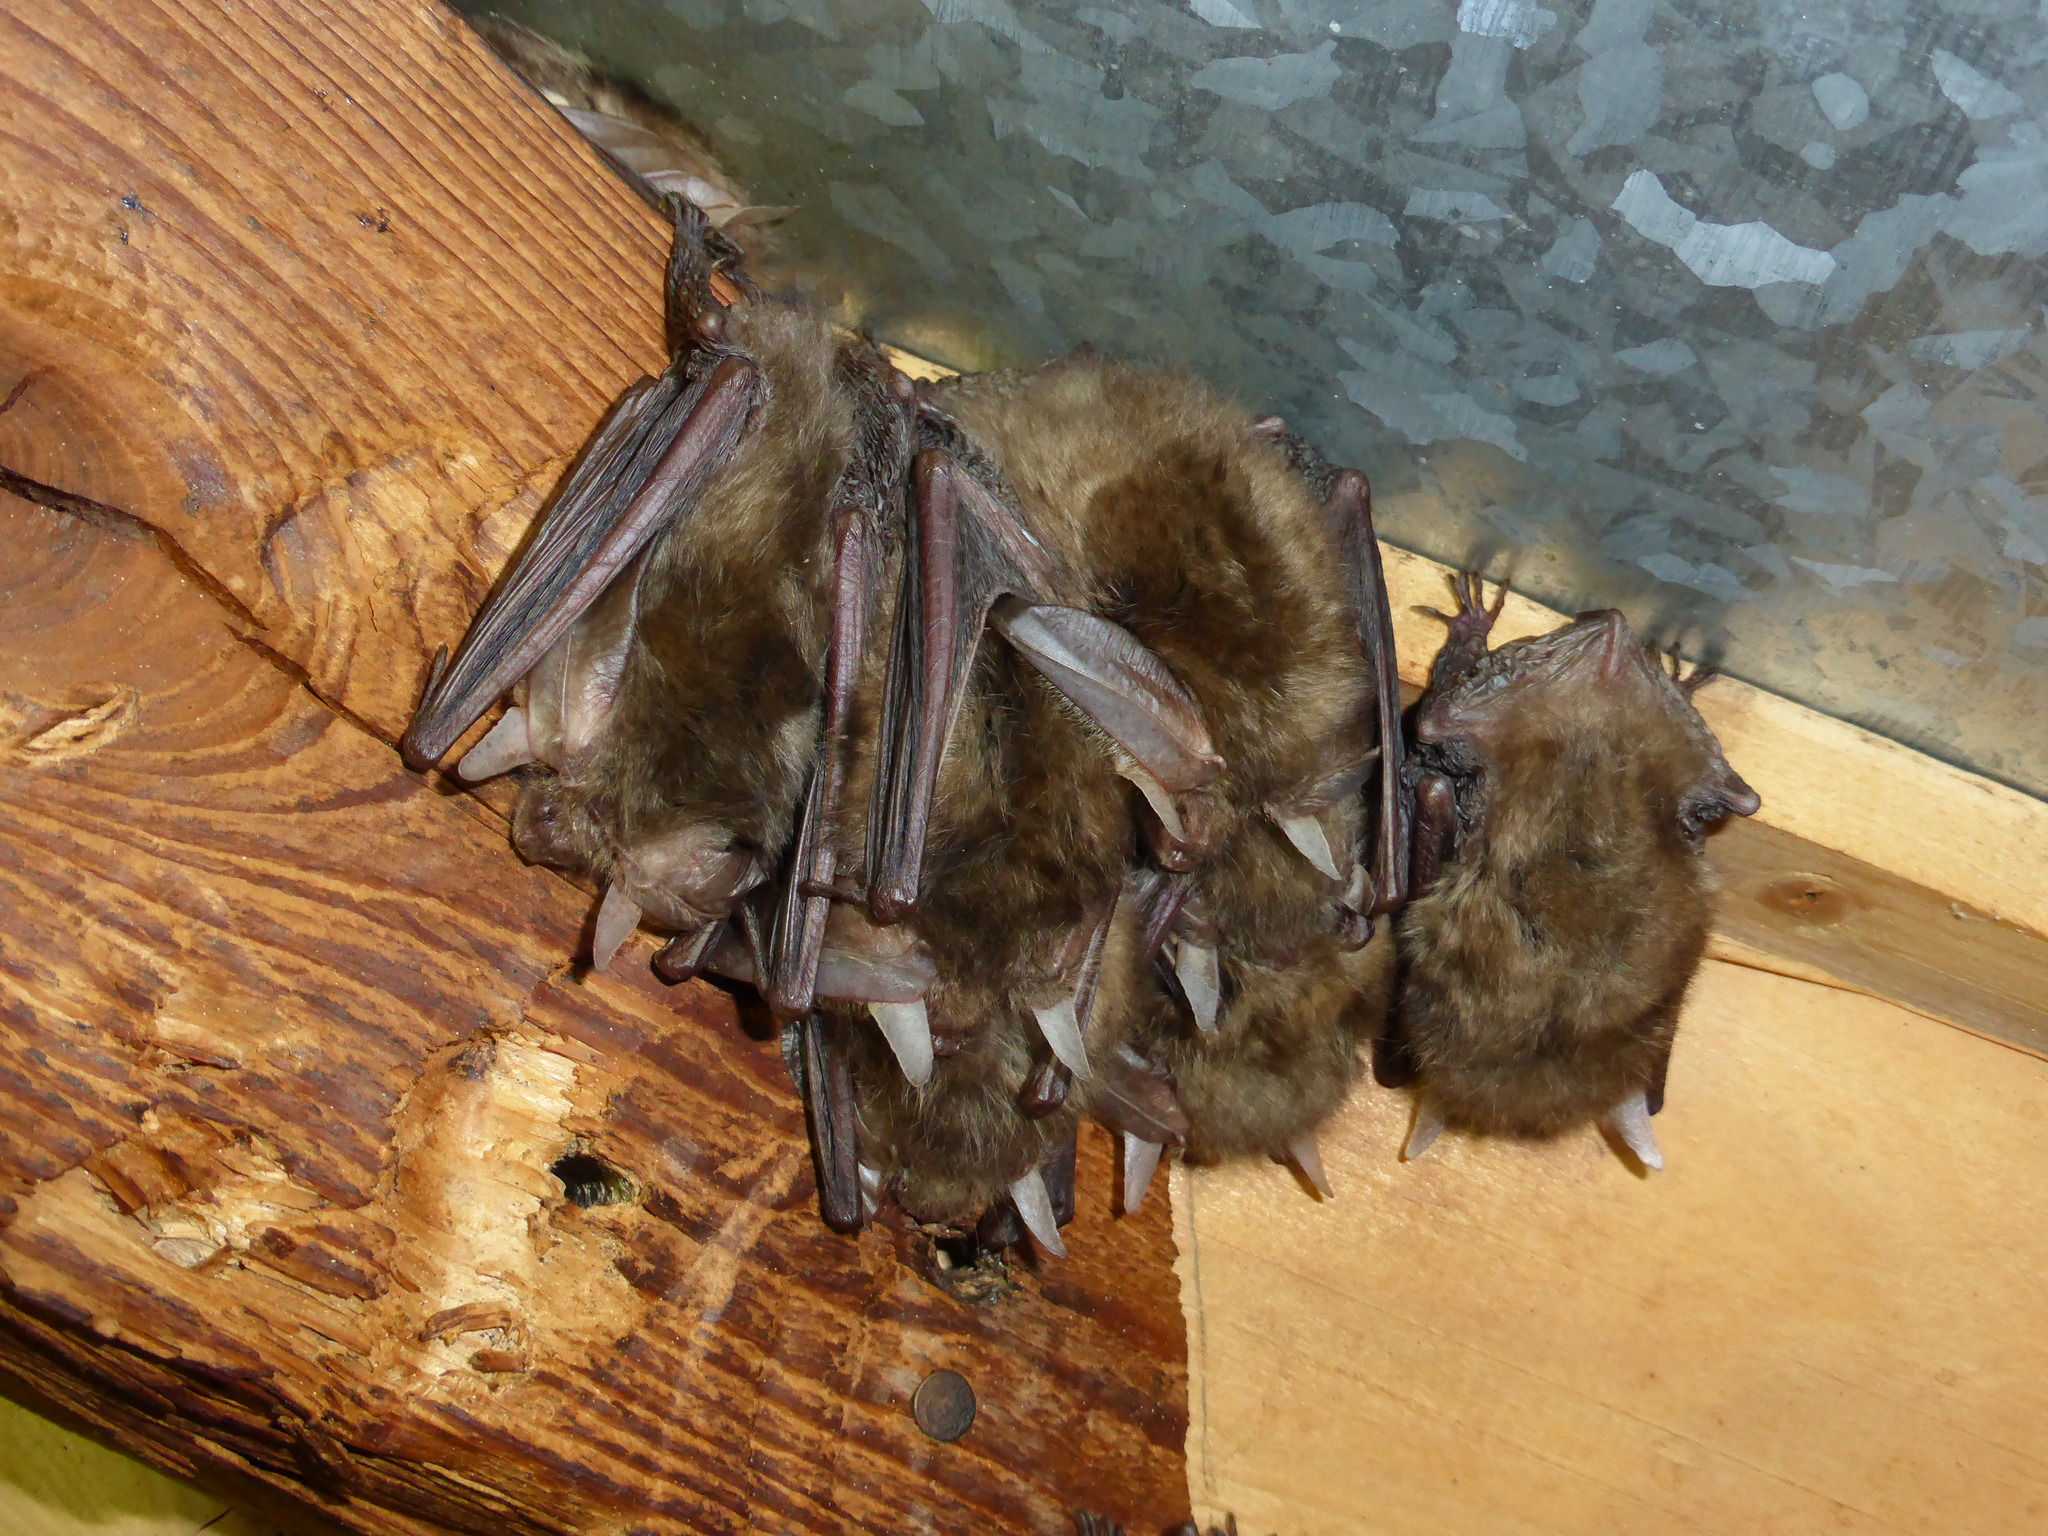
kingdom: Animalia
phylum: Chordata
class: Mammalia
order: Chiroptera
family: Vespertilionidae
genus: Plecotus
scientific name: Plecotus auritus
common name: Brown long-eared bat
